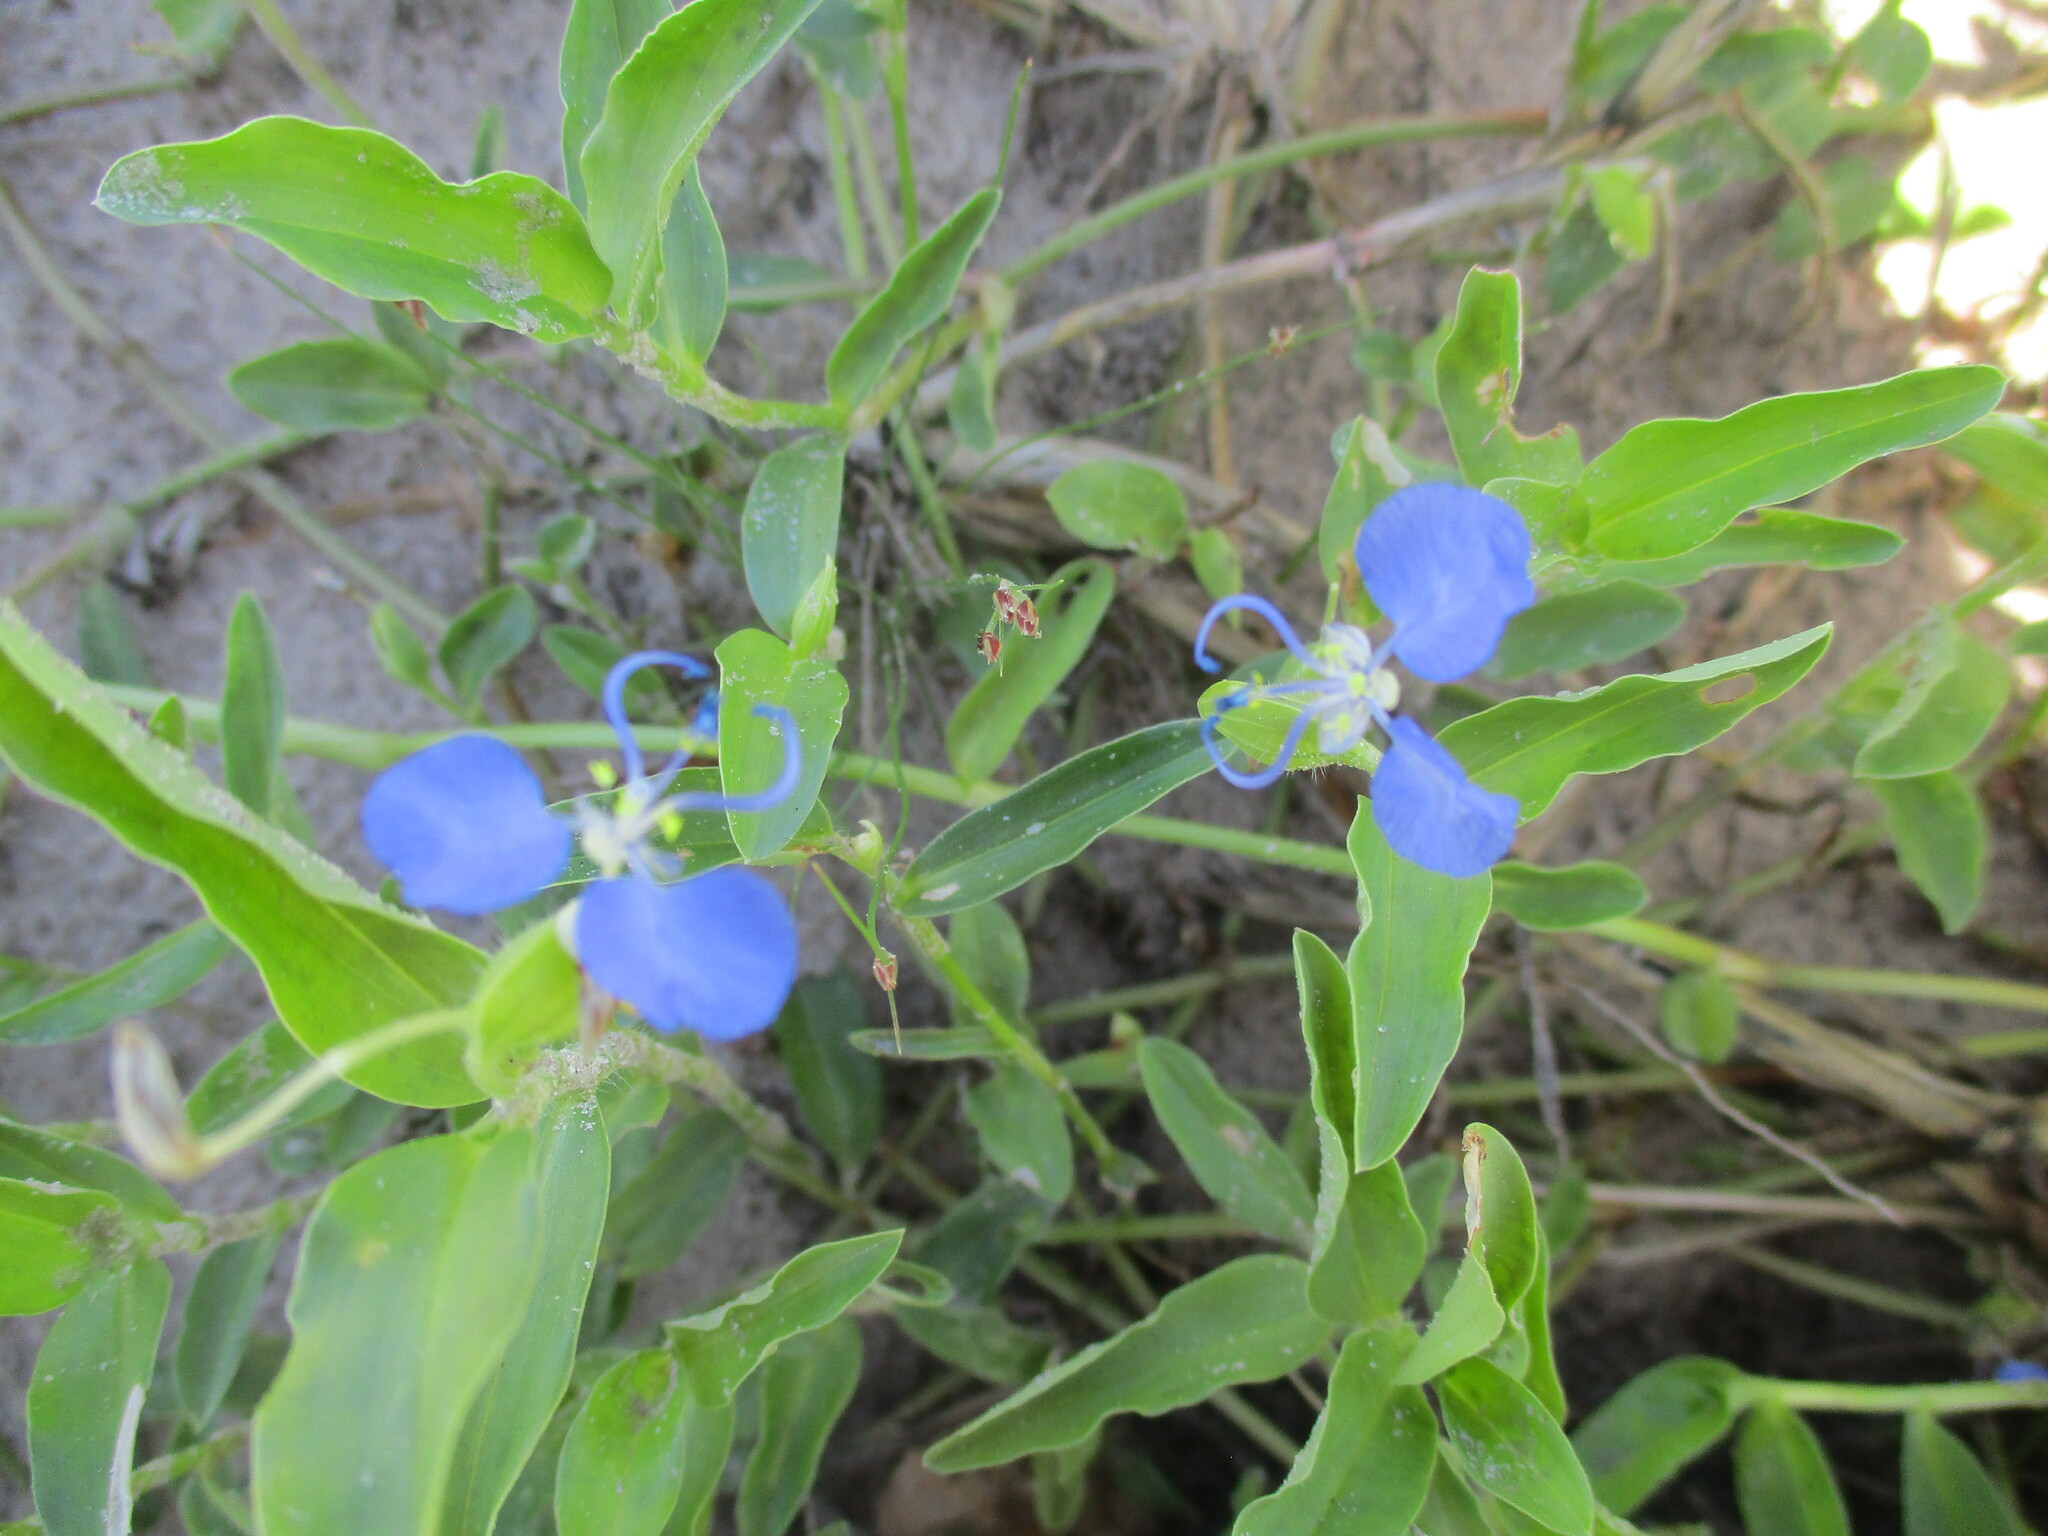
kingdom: Plantae
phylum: Tracheophyta
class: Liliopsida
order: Commelinales
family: Commelinaceae
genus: Commelina
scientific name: Commelina forskaolii
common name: Rat's ear
